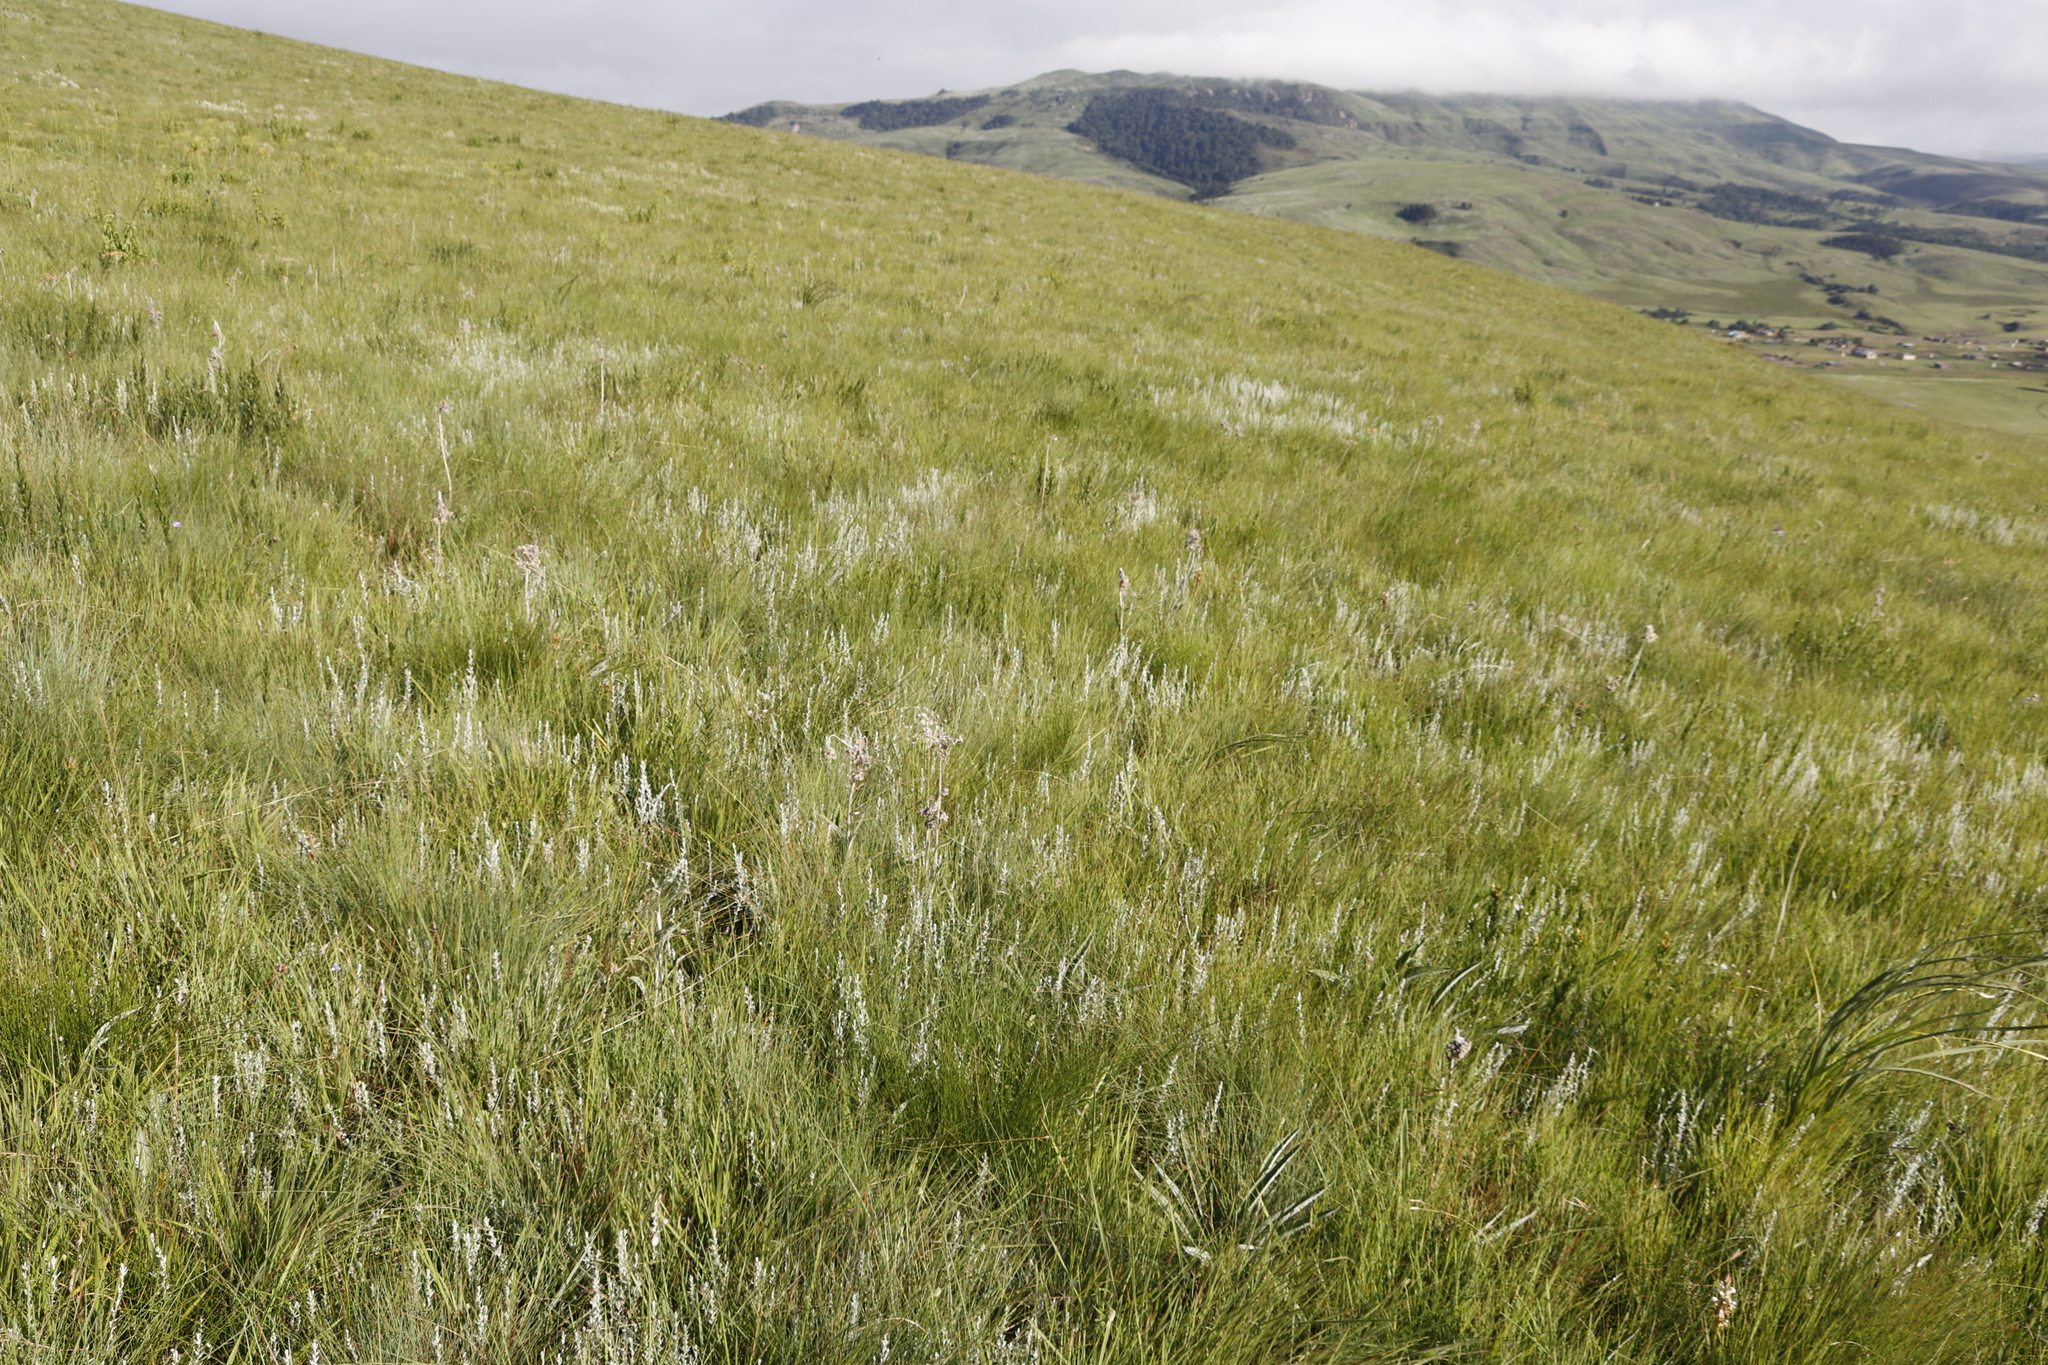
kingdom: Plantae
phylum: Tracheophyta
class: Magnoliopsida
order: Asterales
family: Asteraceae
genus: Helichrysum
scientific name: Helichrysum aureonitens
